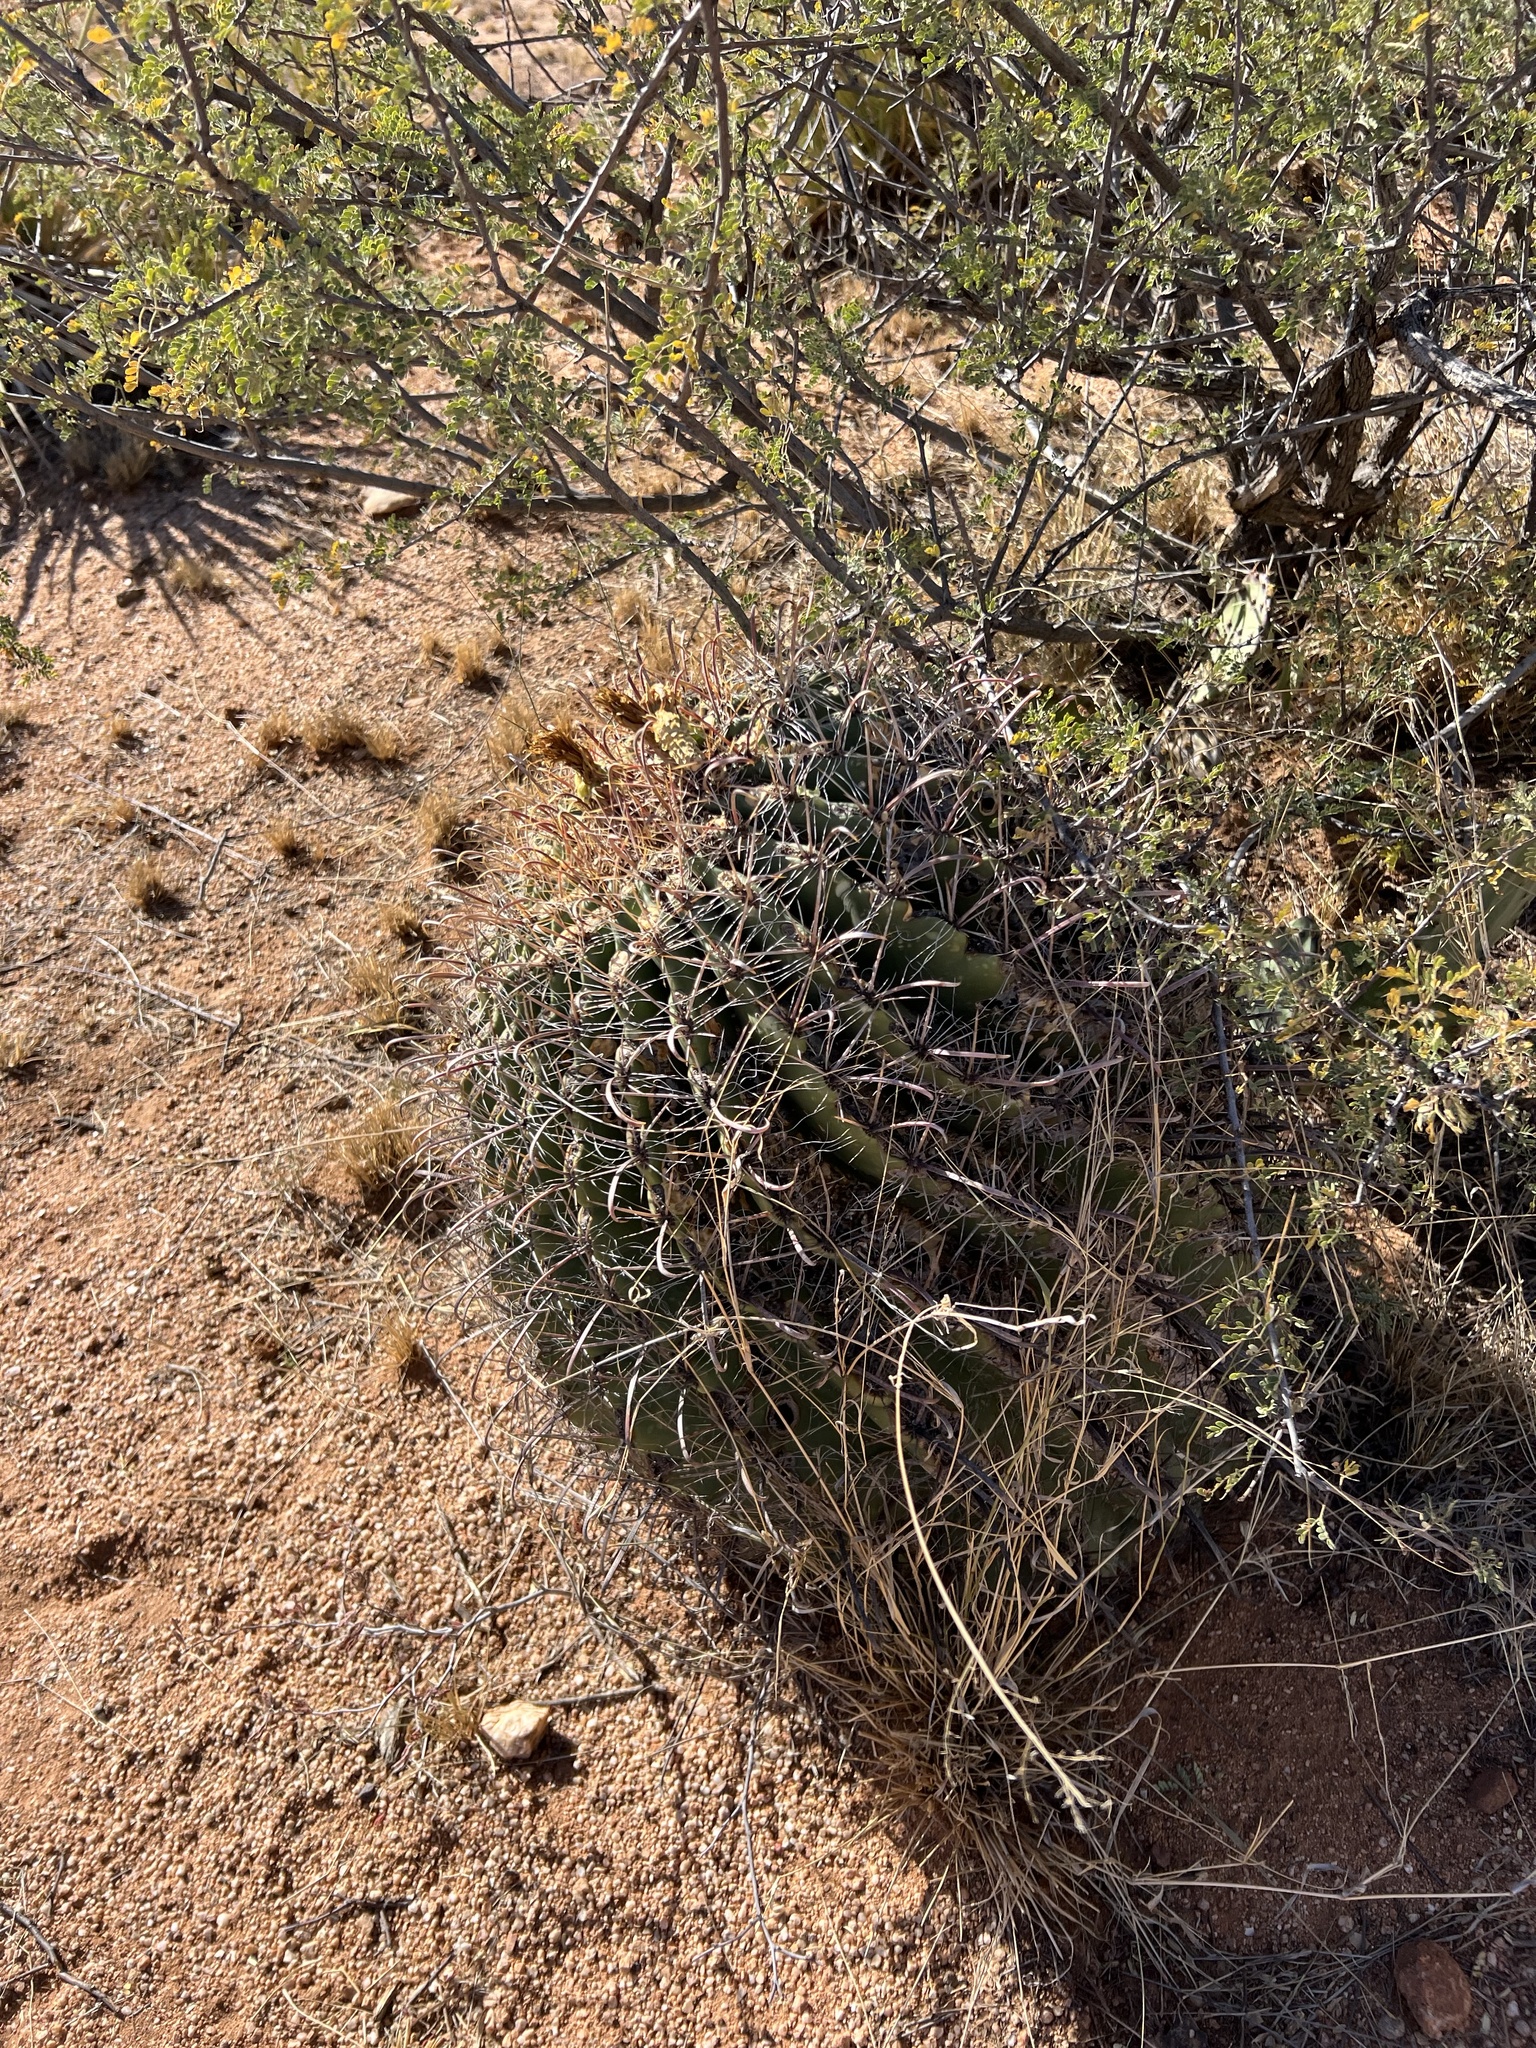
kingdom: Plantae
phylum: Tracheophyta
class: Magnoliopsida
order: Caryophyllales
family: Cactaceae
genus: Ferocactus
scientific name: Ferocactus wislizeni
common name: Candy barrel cactus
